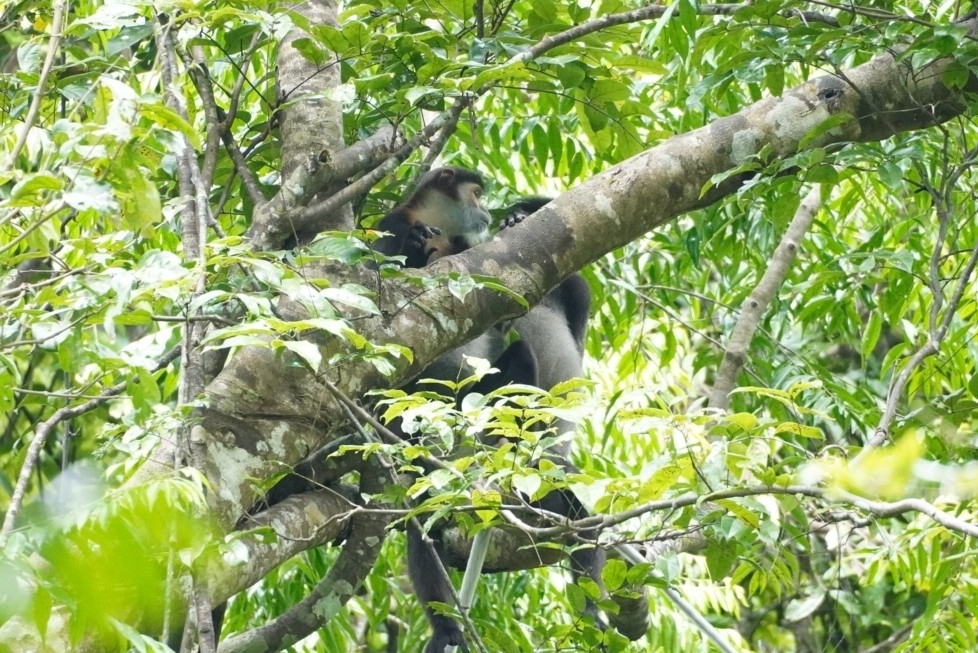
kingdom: Animalia
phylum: Chordata
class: Mammalia
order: Primates
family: Cercopithecidae
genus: Pygathrix
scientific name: Pygathrix nigripes
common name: Black-shanked douc
